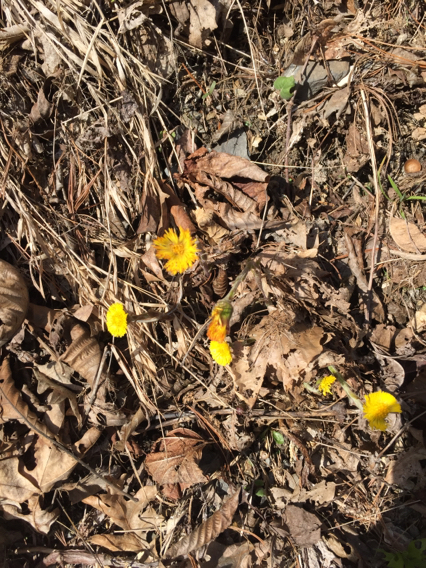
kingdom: Plantae
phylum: Tracheophyta
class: Magnoliopsida
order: Asterales
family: Asteraceae
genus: Tussilago
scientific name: Tussilago farfara
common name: Coltsfoot
